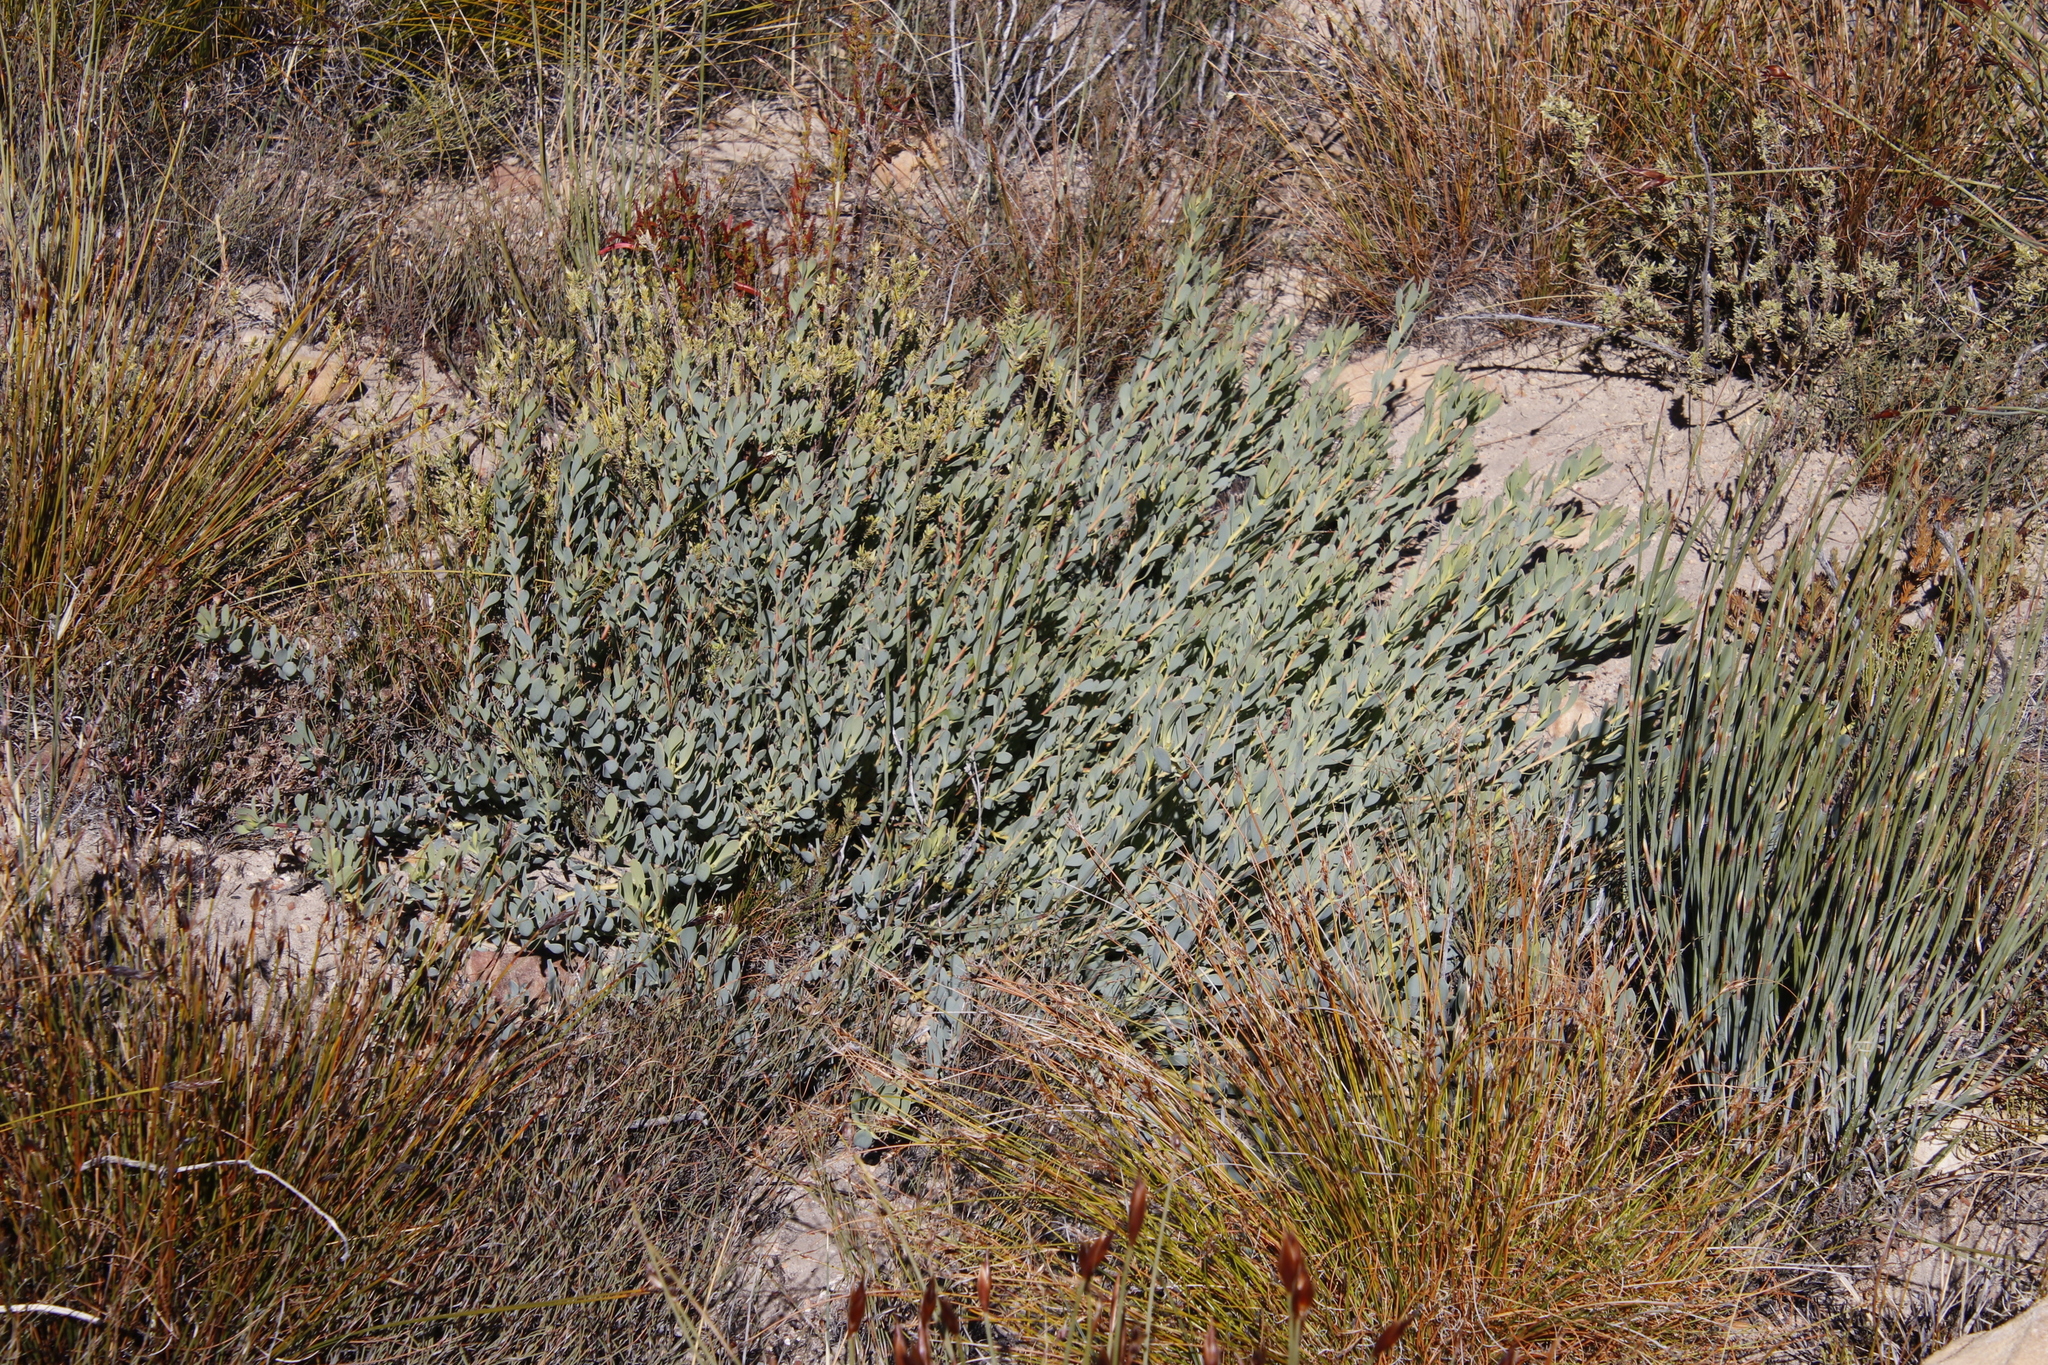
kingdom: Plantae
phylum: Tracheophyta
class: Magnoliopsida
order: Proteales
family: Proteaceae
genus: Leucadendron
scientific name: Leucadendron glaberrimum
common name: Common oily conebush
